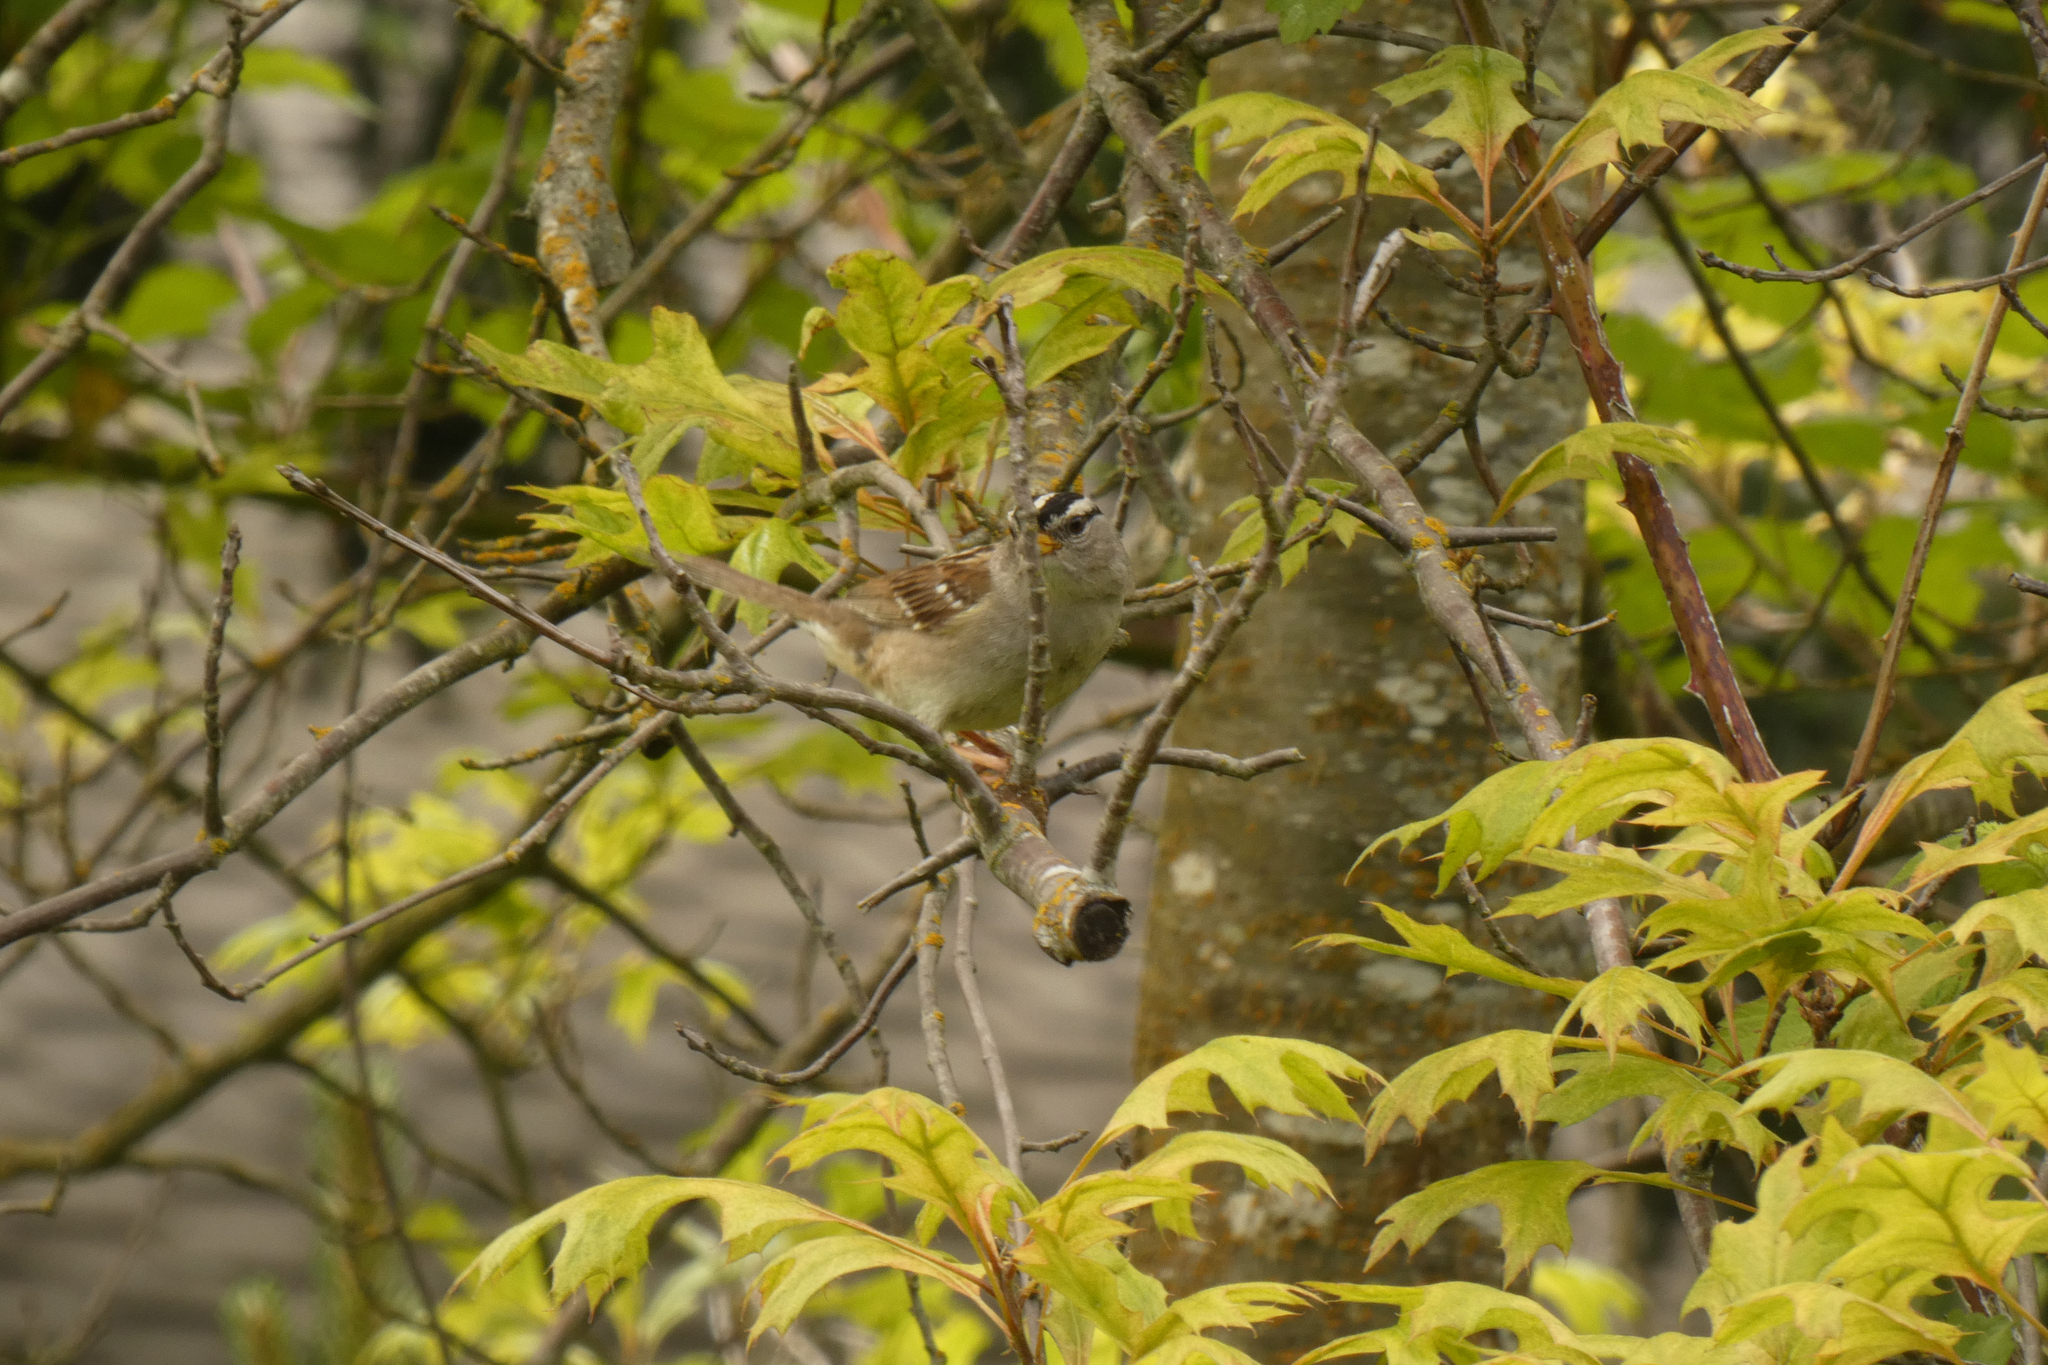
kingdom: Animalia
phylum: Chordata
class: Aves
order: Passeriformes
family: Passerellidae
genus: Zonotrichia
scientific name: Zonotrichia leucophrys
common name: White-crowned sparrow
